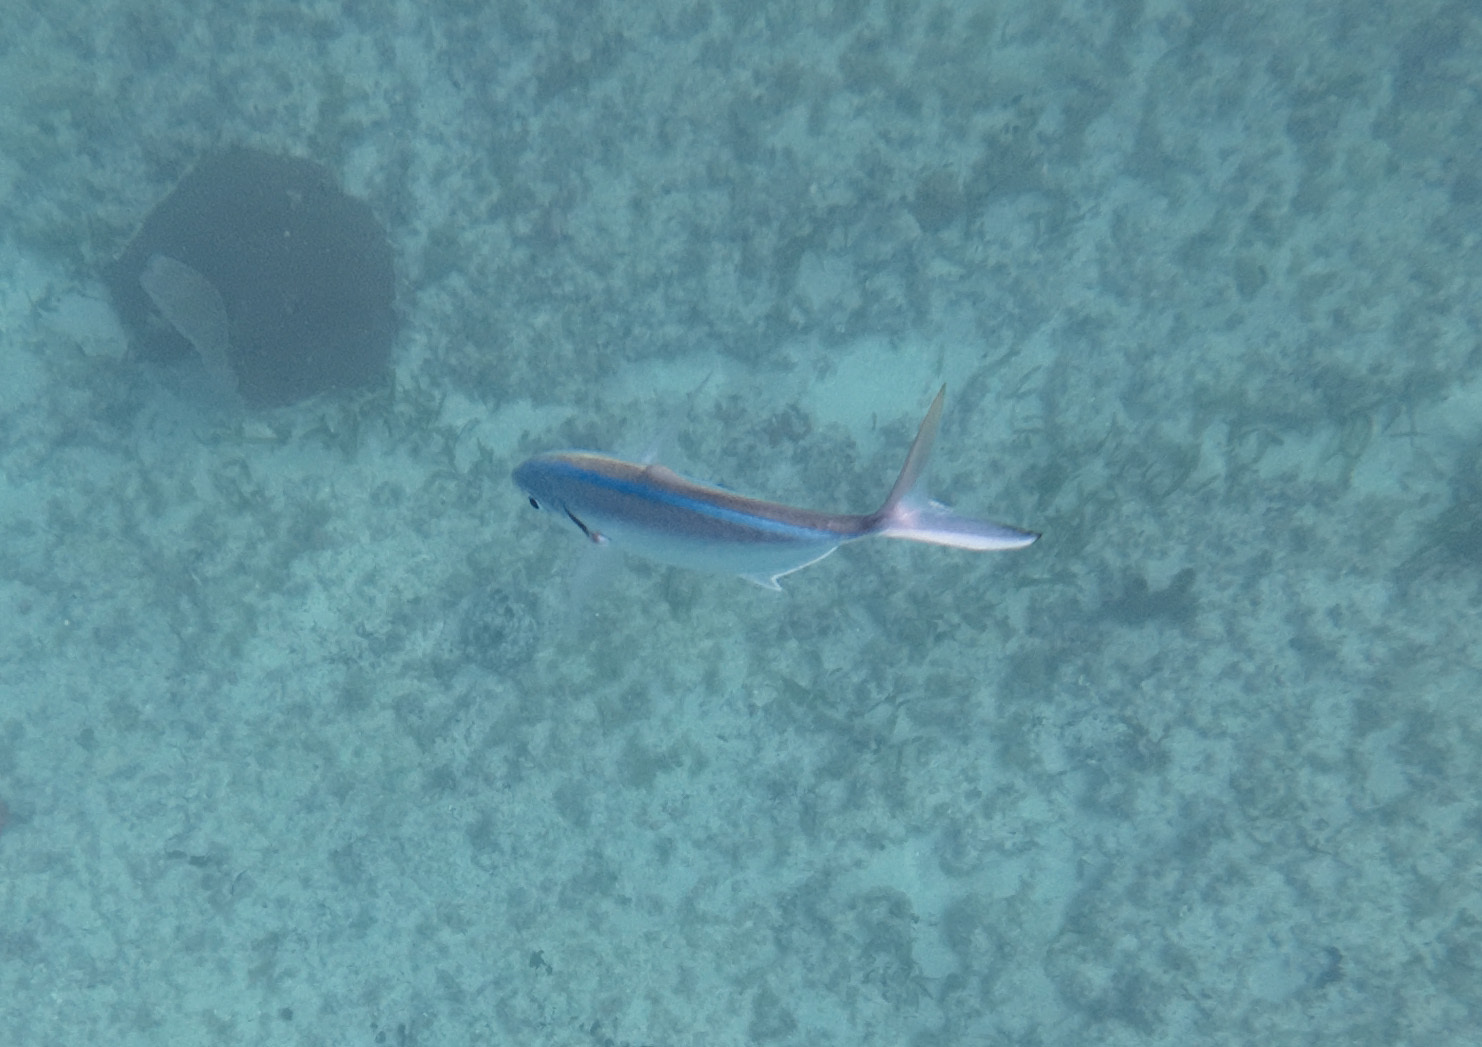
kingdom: Animalia
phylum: Chordata
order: Perciformes
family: Carangidae
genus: Caranx
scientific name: Caranx ruber
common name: Bar jack
